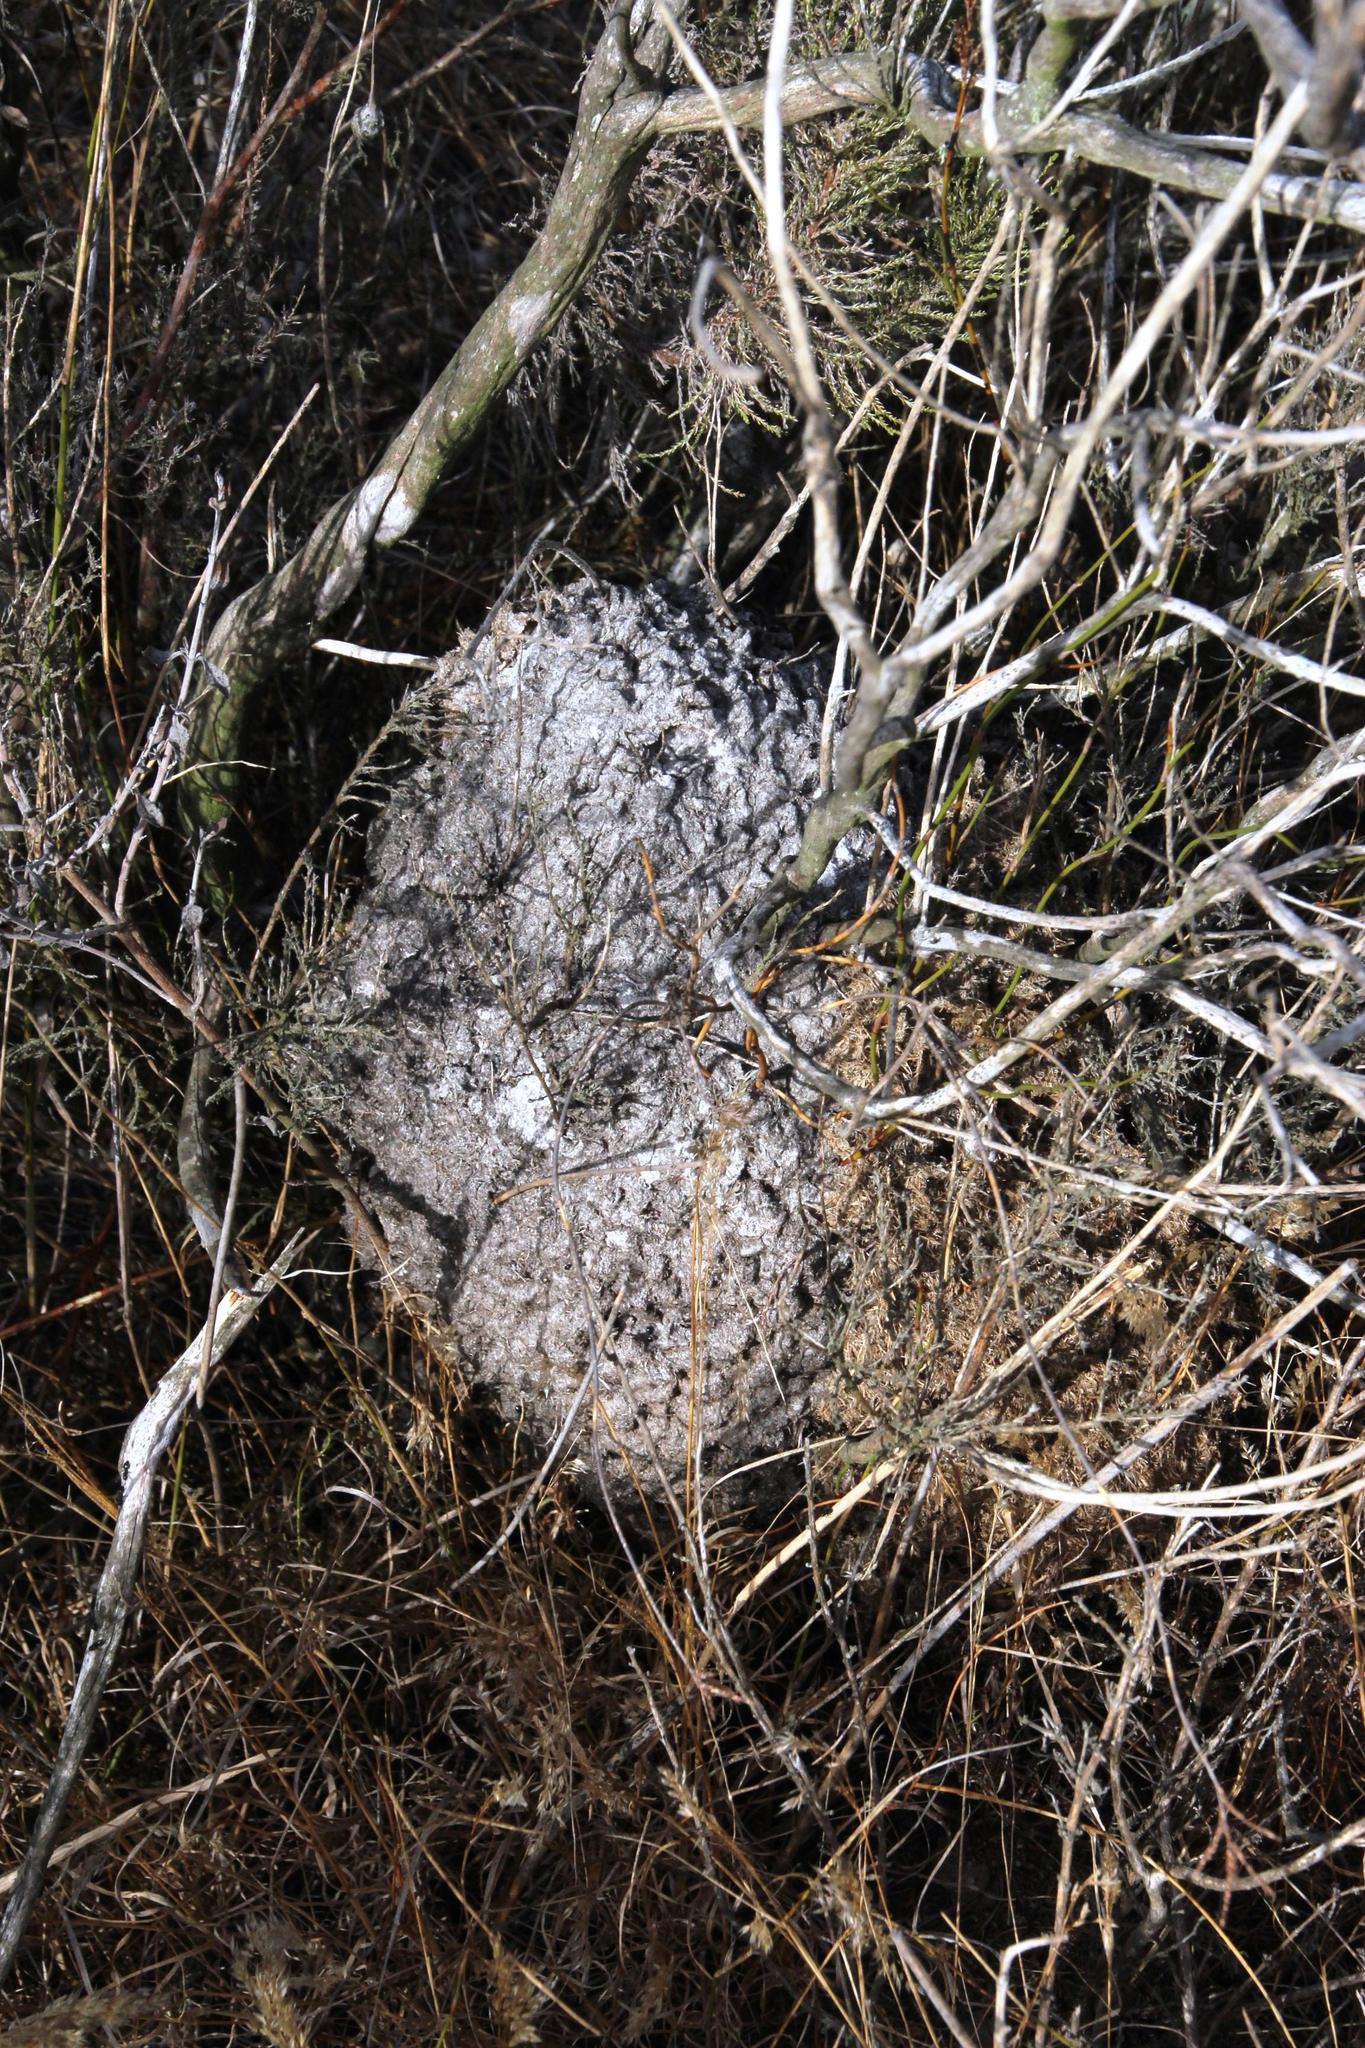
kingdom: Animalia
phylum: Arthropoda
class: Insecta
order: Hymenoptera
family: Formicidae
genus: Crematogaster
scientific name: Crematogaster peringueyi
